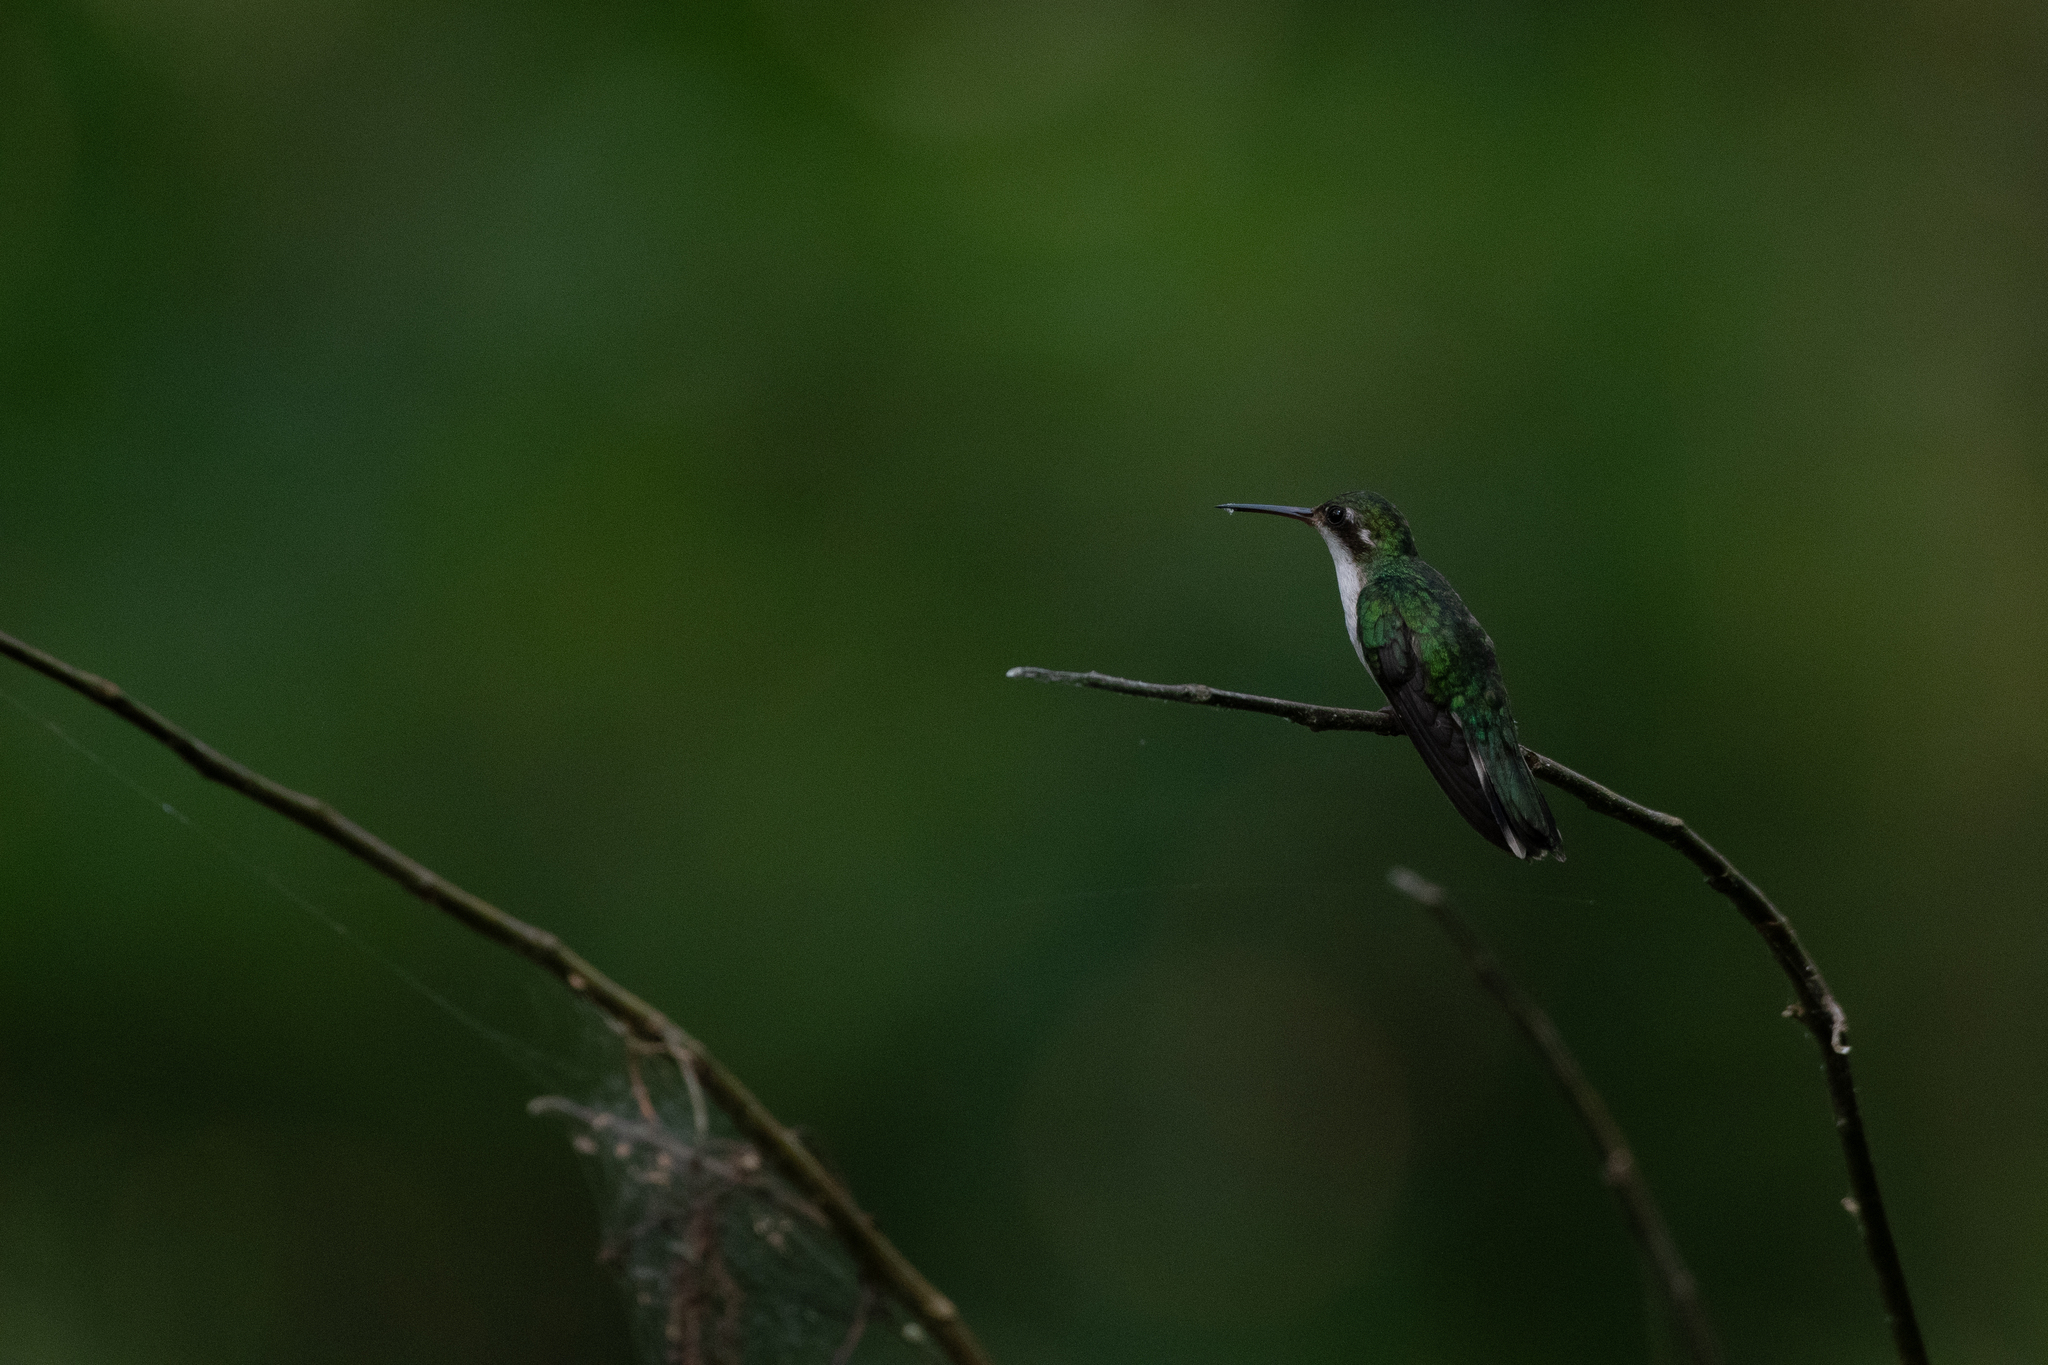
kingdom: Animalia
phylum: Chordata
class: Aves
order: Apodiformes
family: Trochilidae
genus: Cynanthus
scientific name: Cynanthus canivetii
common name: Canivet's emerald
